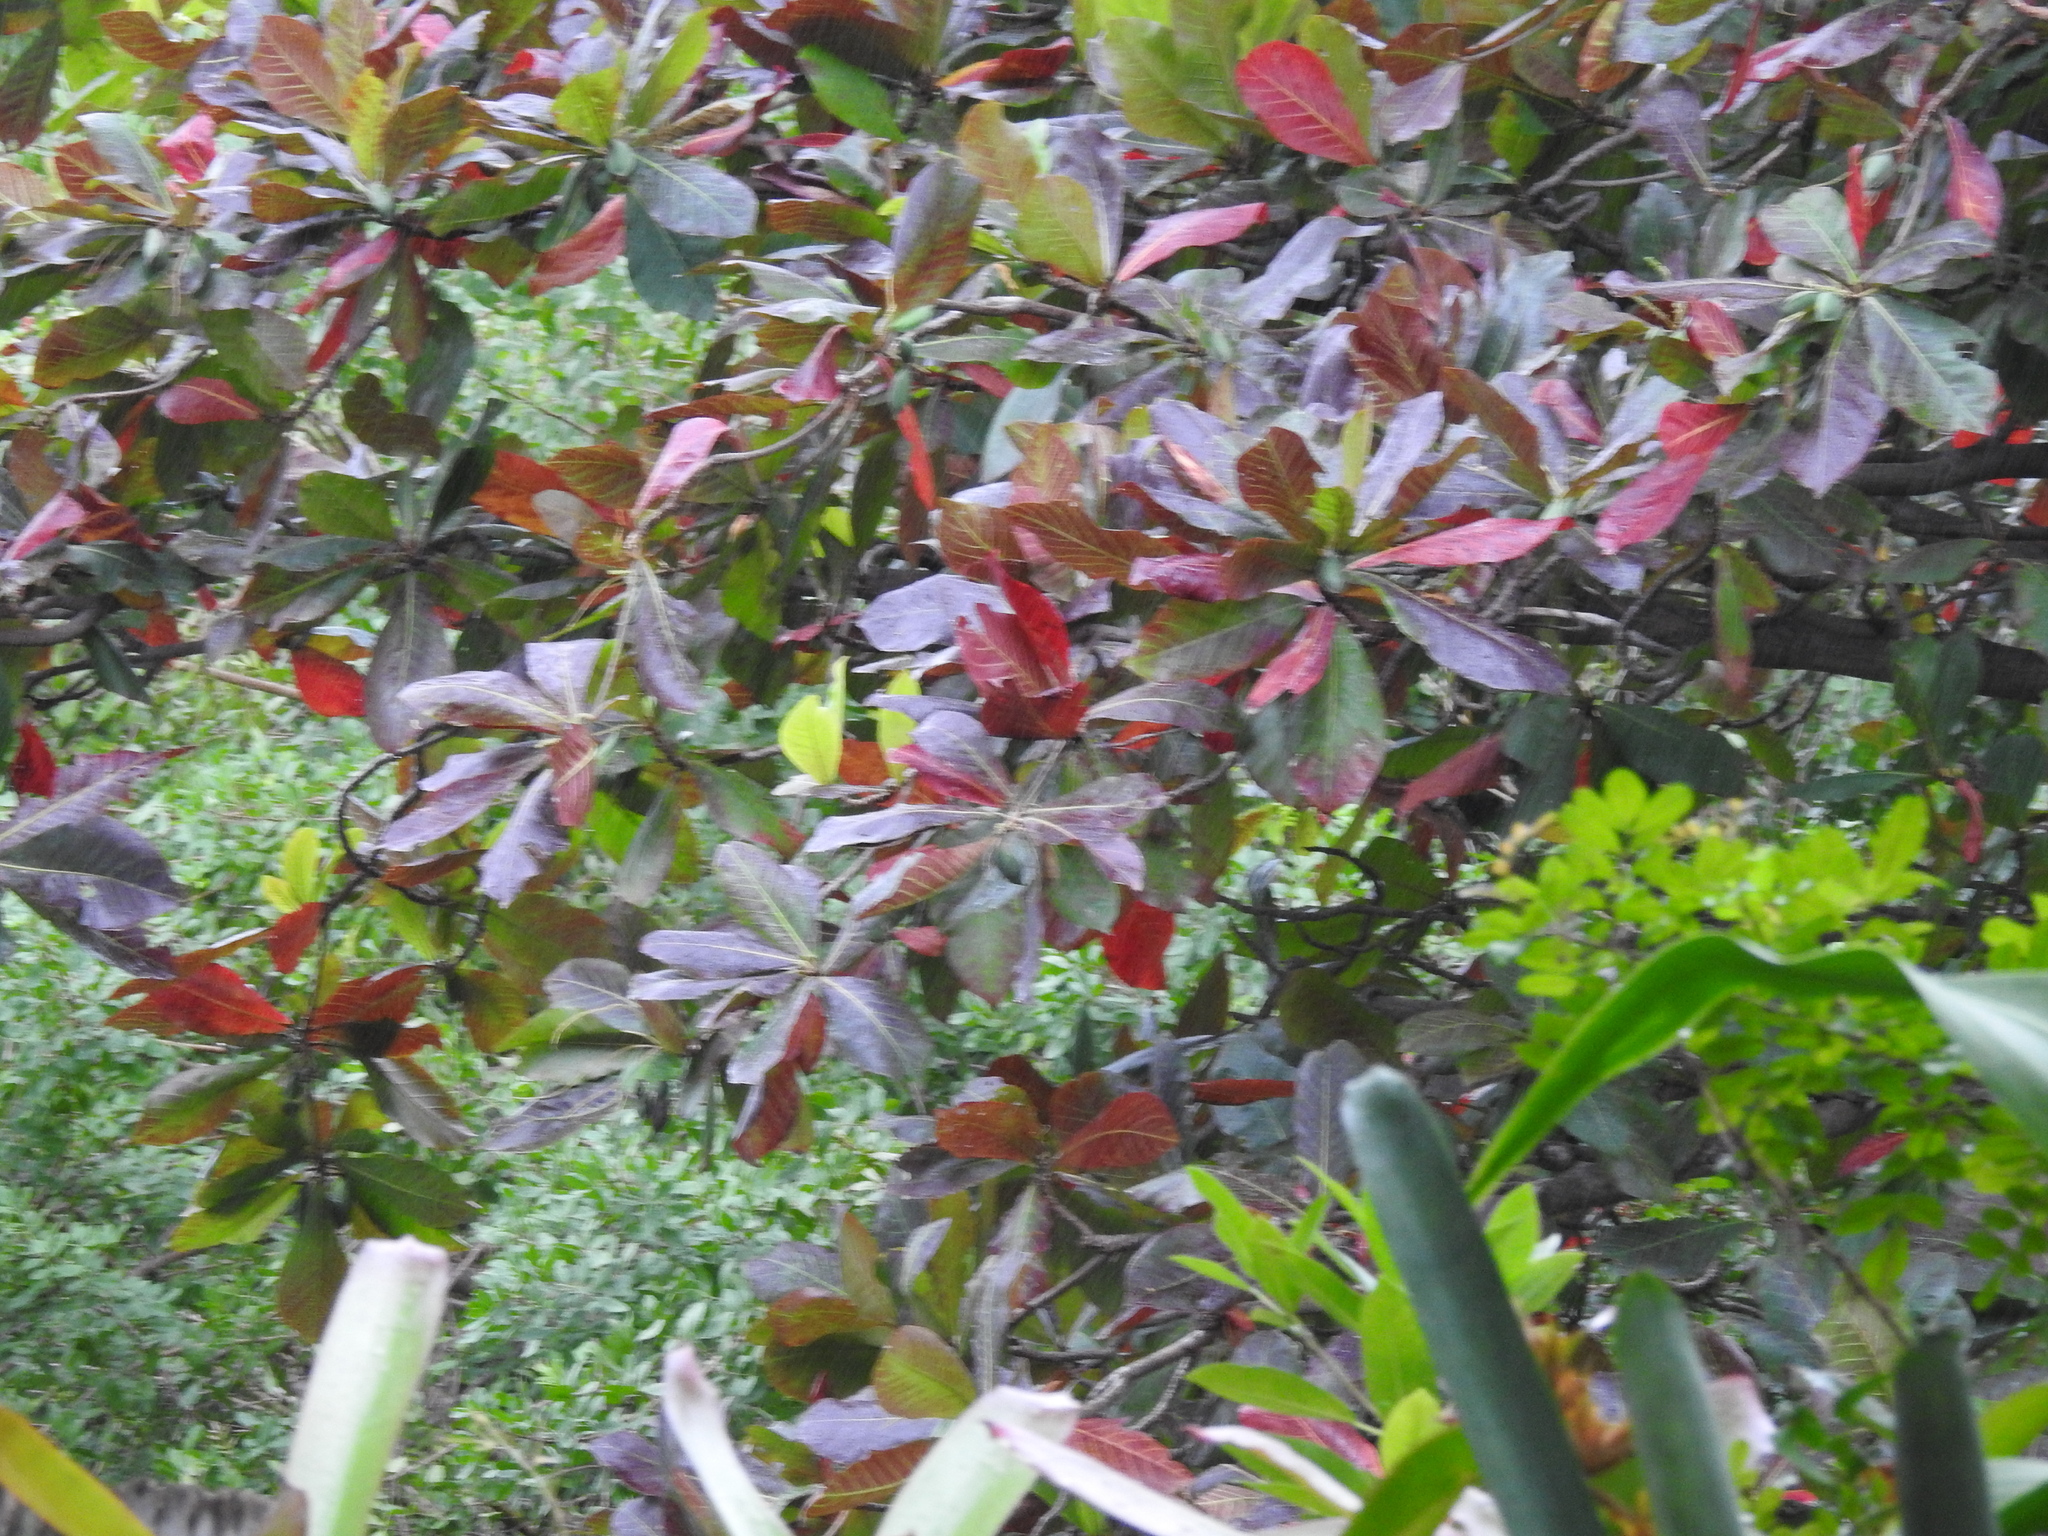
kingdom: Plantae
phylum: Tracheophyta
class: Magnoliopsida
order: Myrtales
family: Combretaceae
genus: Terminalia
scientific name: Terminalia catappa
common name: Tropical almond
